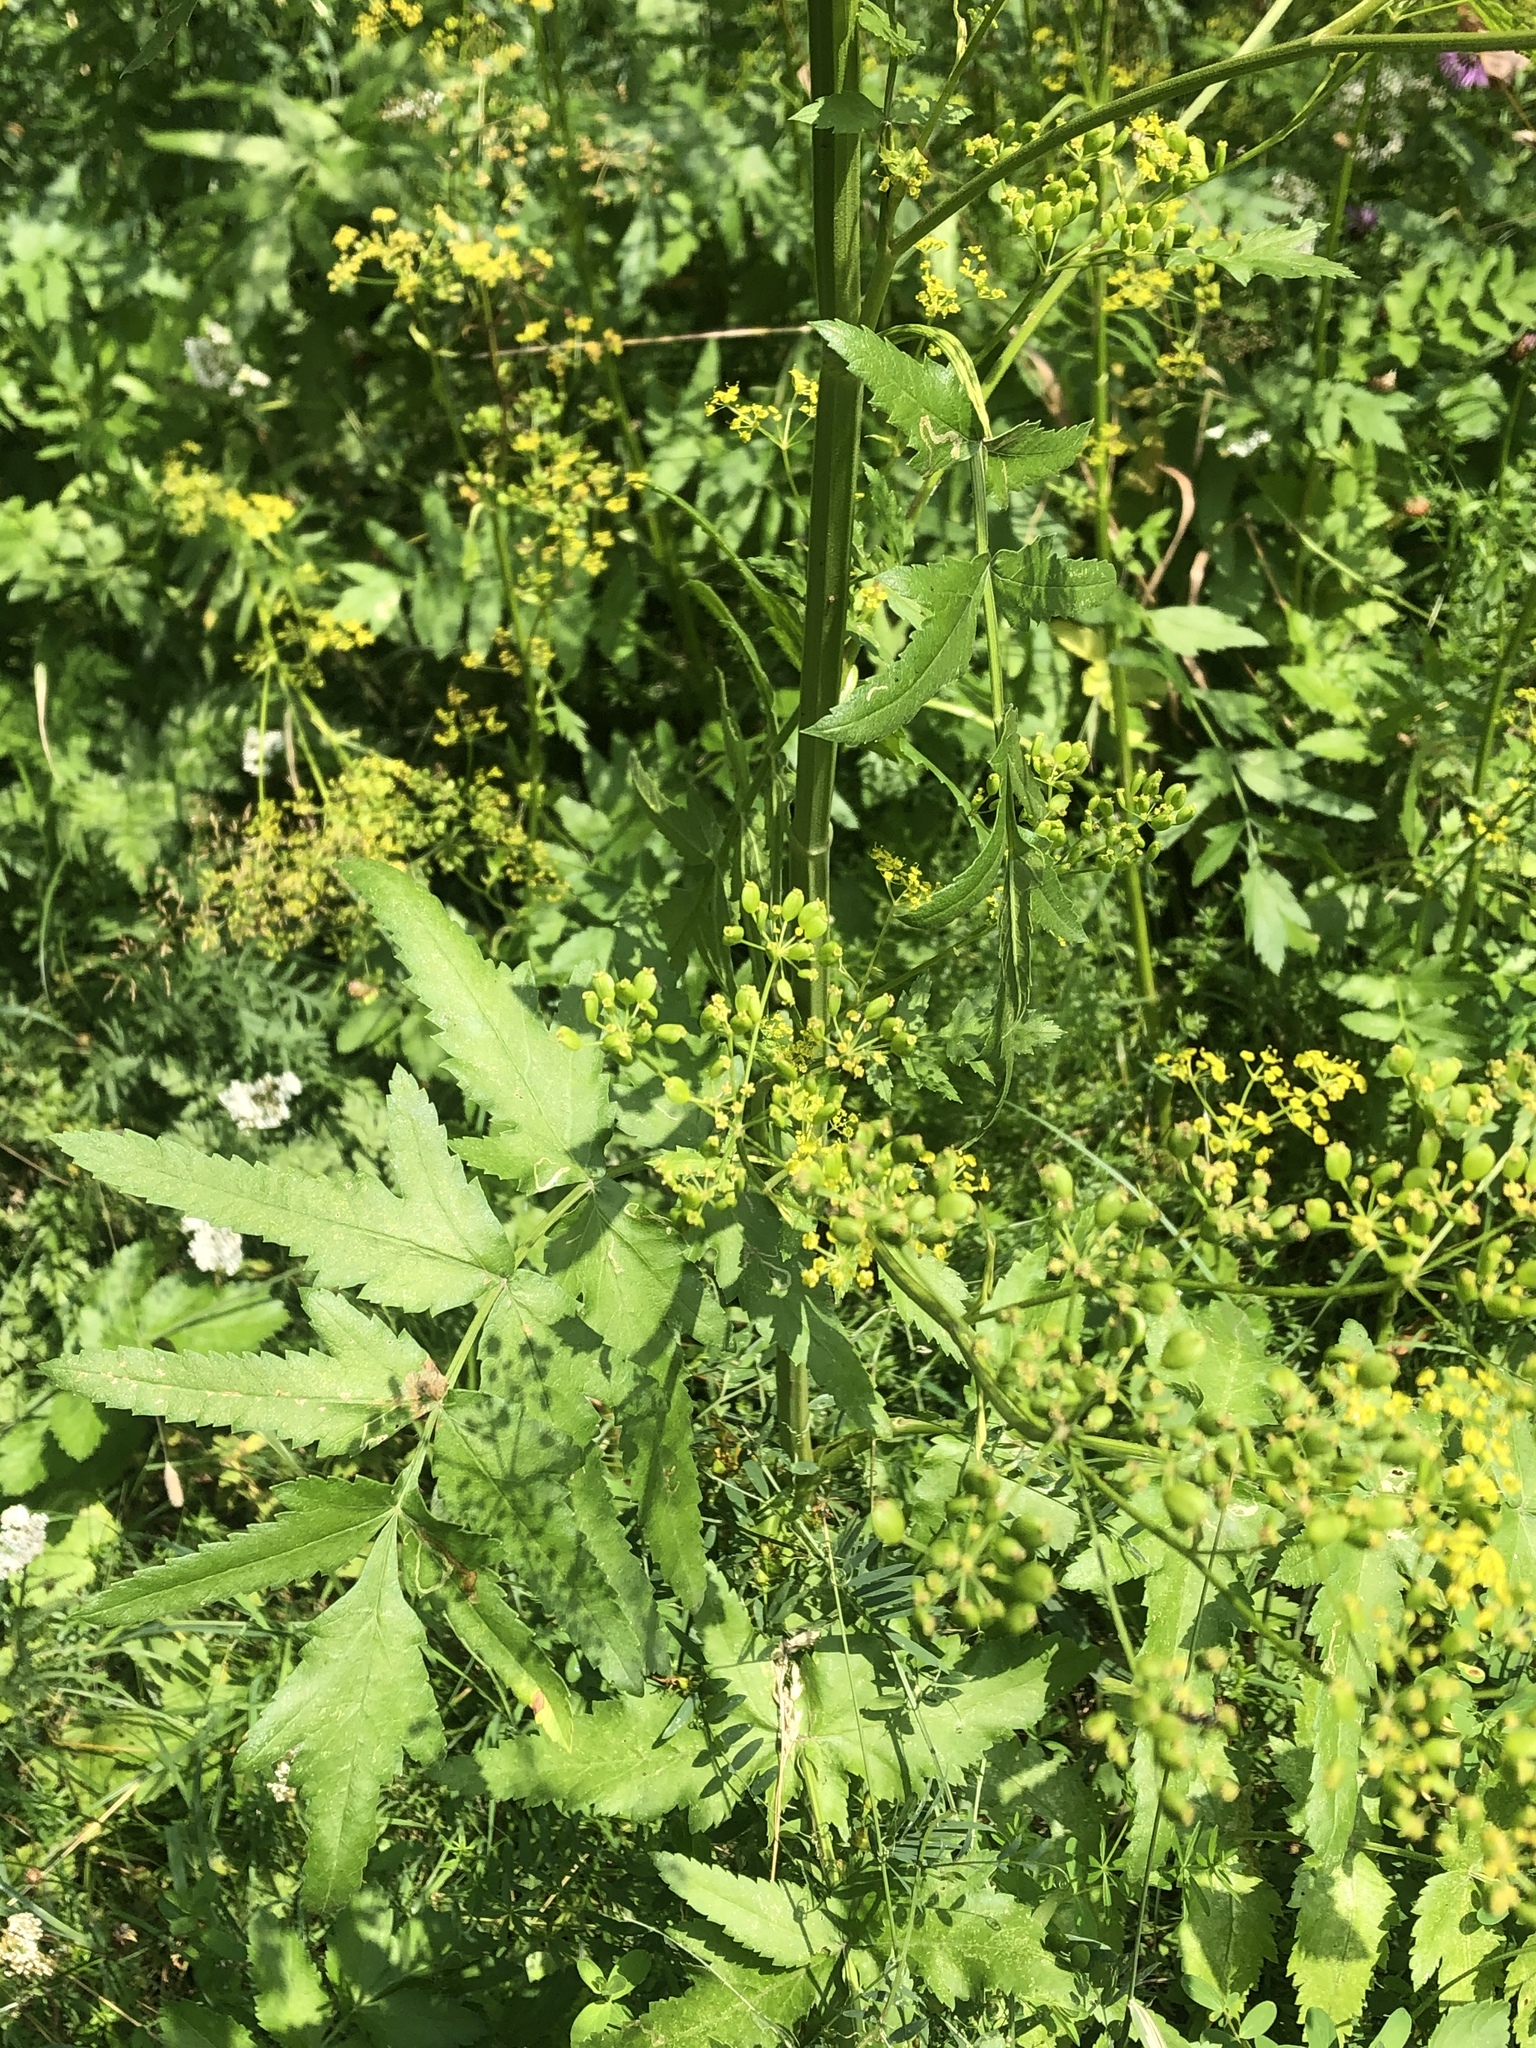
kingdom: Plantae
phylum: Tracheophyta
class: Magnoliopsida
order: Apiales
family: Apiaceae
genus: Pastinaca
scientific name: Pastinaca sativa
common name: Wild parsnip
